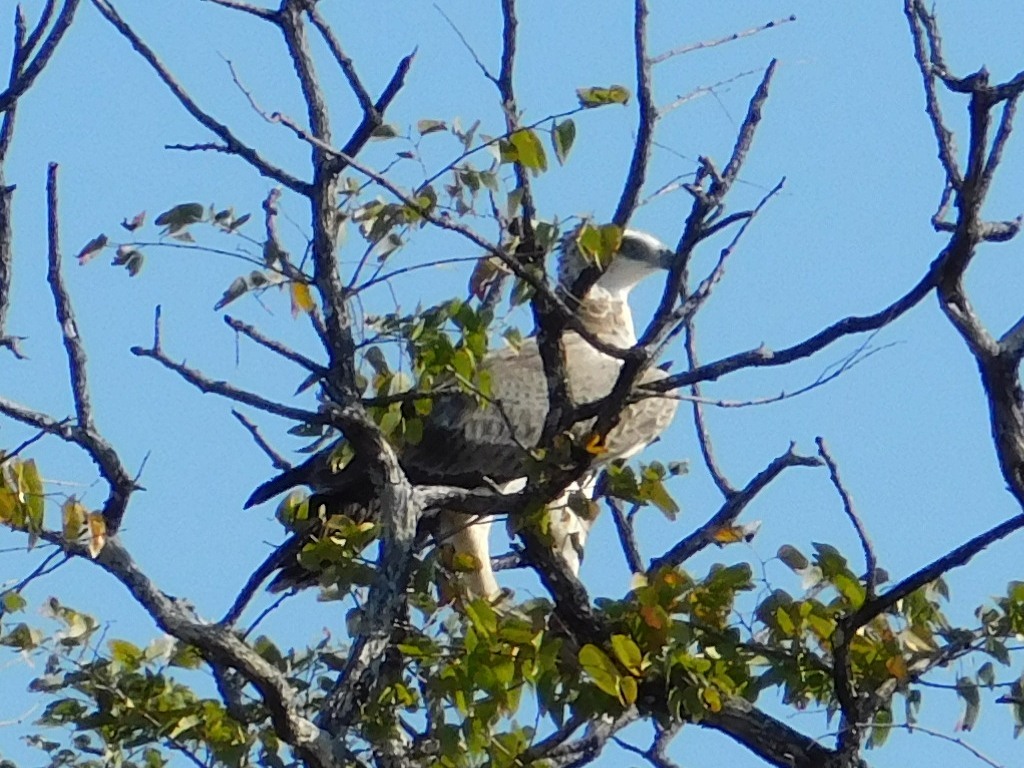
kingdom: Animalia
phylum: Chordata
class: Aves
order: Accipitriformes
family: Accipitridae
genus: Polemaetus
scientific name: Polemaetus bellicosus
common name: Martial eagle
